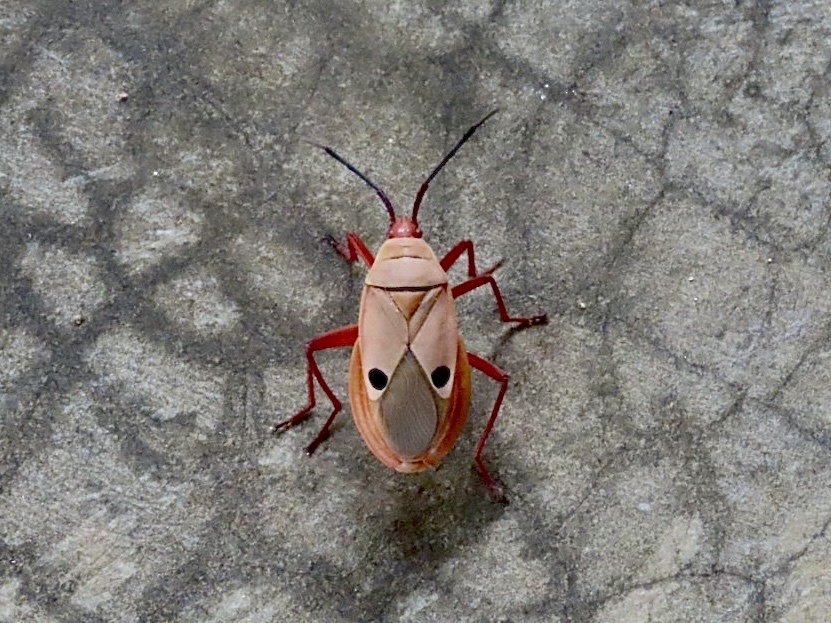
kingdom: Animalia
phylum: Arthropoda
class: Insecta
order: Hemiptera
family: Pyrrhocoridae
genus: Probergrothius
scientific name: Probergrothius nigricornis
